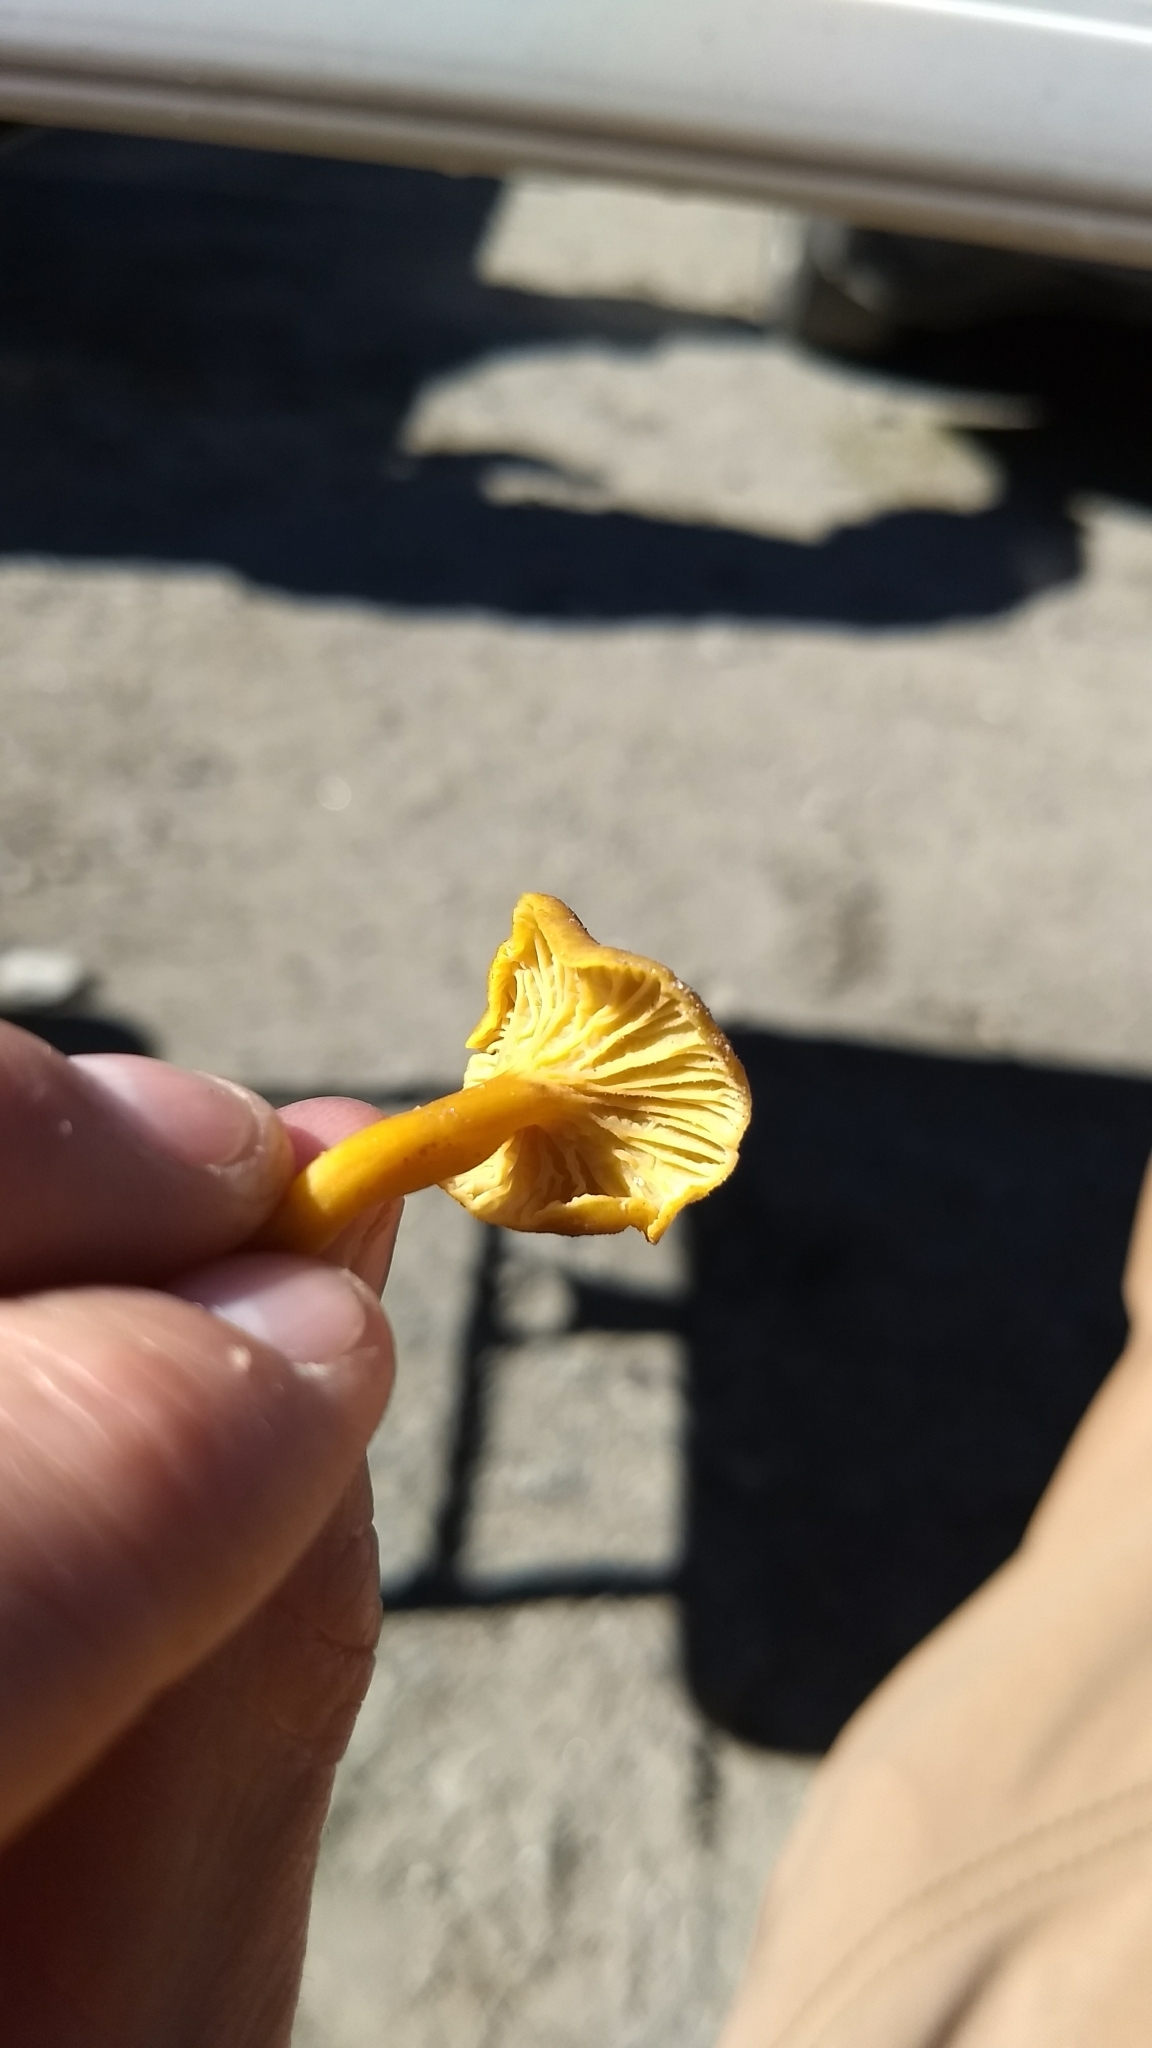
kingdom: Fungi
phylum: Basidiomycota
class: Agaricomycetes
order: Cantharellales
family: Hydnaceae
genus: Craterellus
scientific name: Craterellus tubaeformis
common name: Yellowfoot
